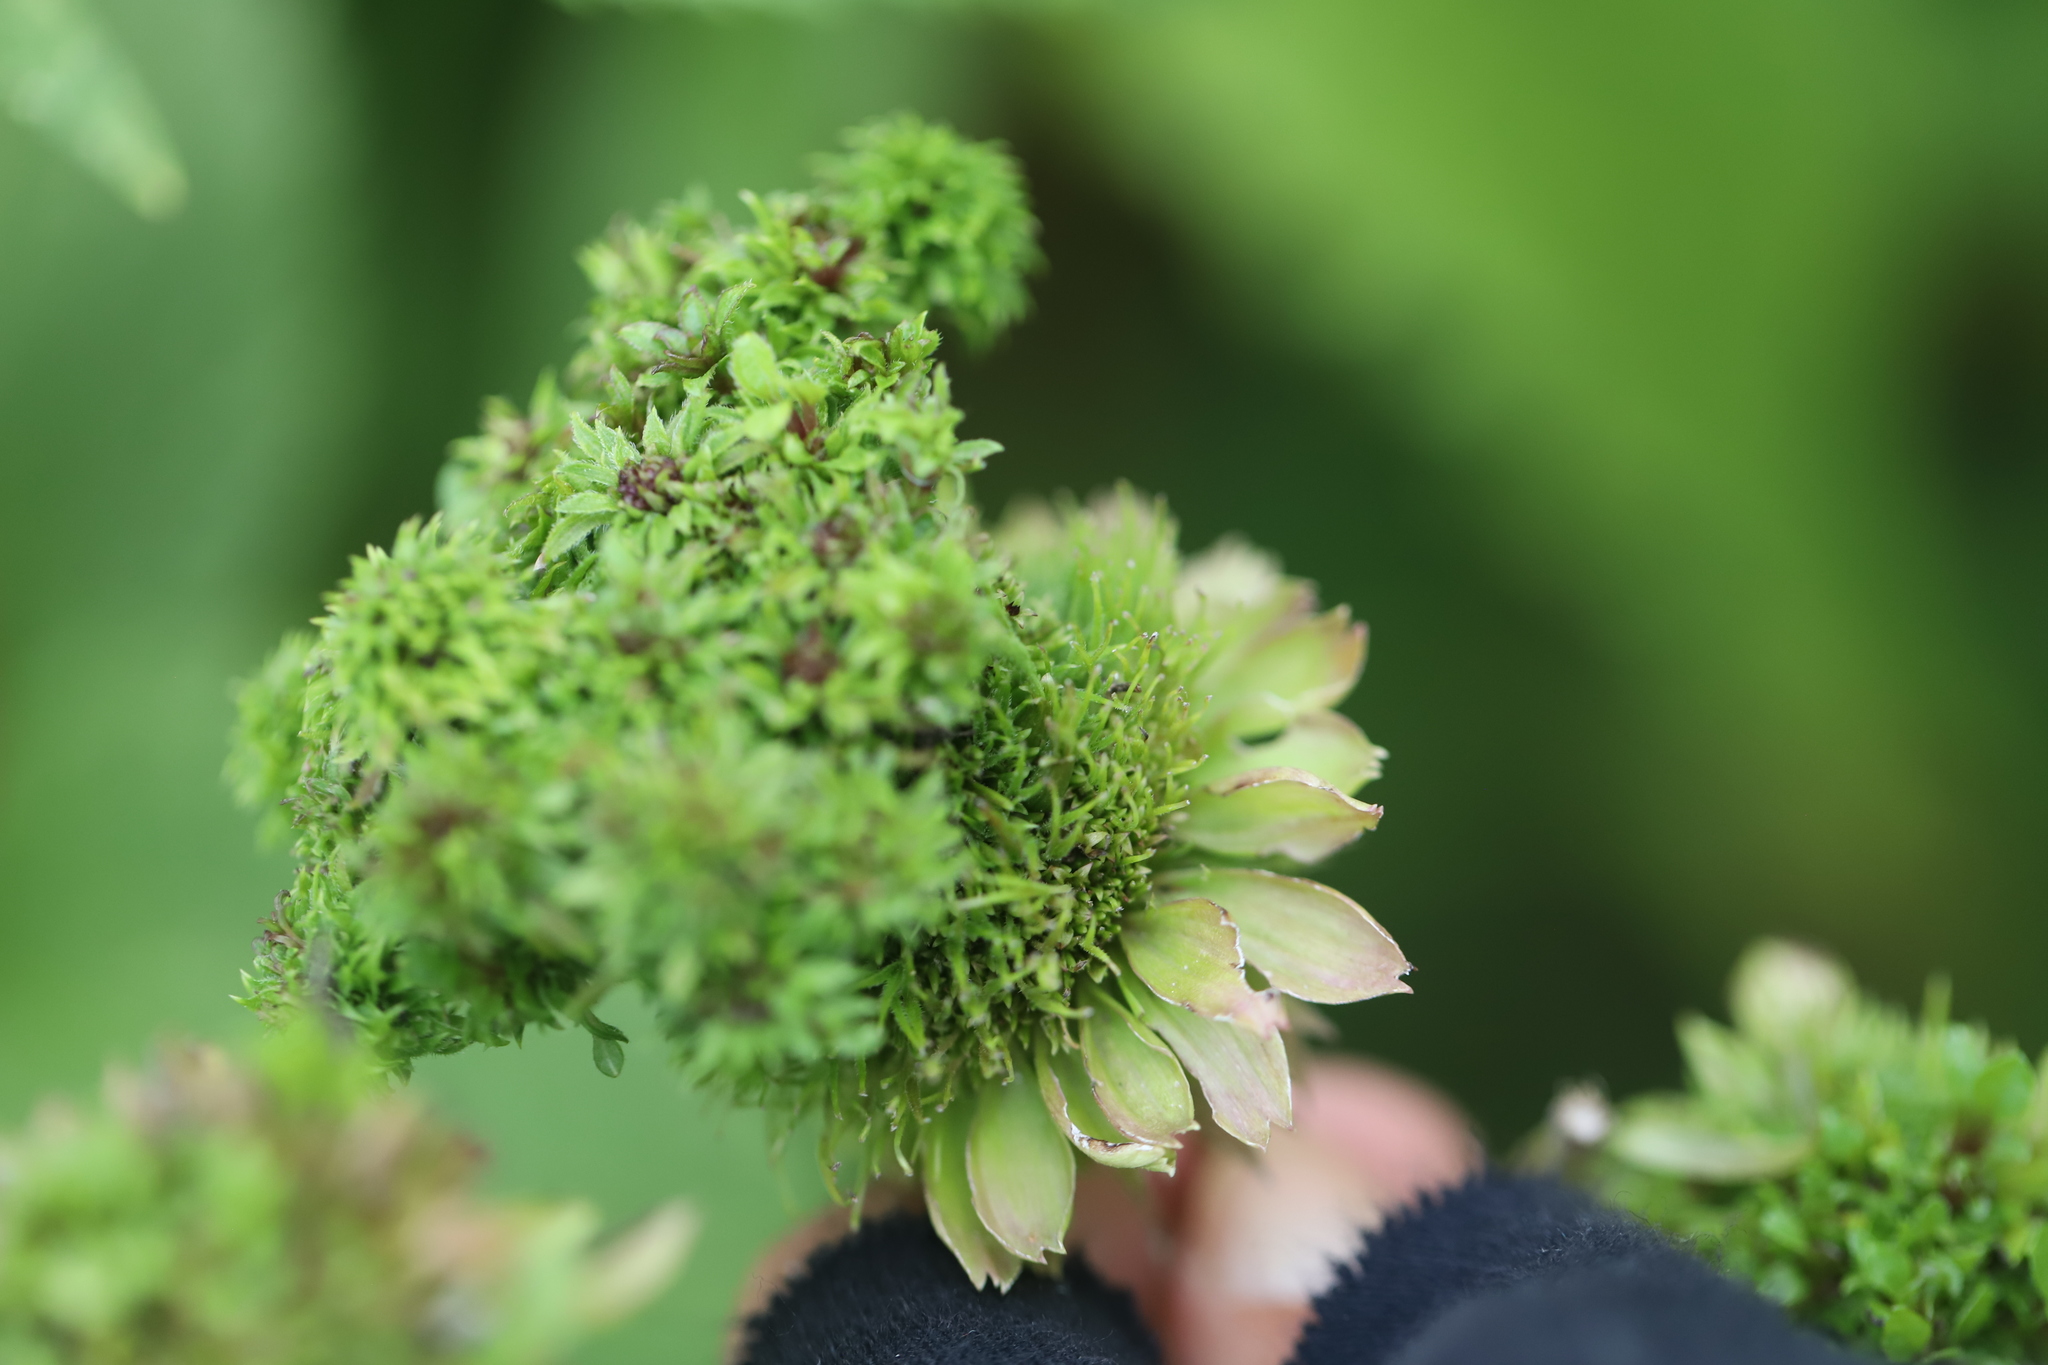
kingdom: Bacteria
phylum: Firmicutes
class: Bacilli
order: Acholeplasmatales
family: Acholeplasmataceae
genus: Phytoplasma
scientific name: Phytoplasma
